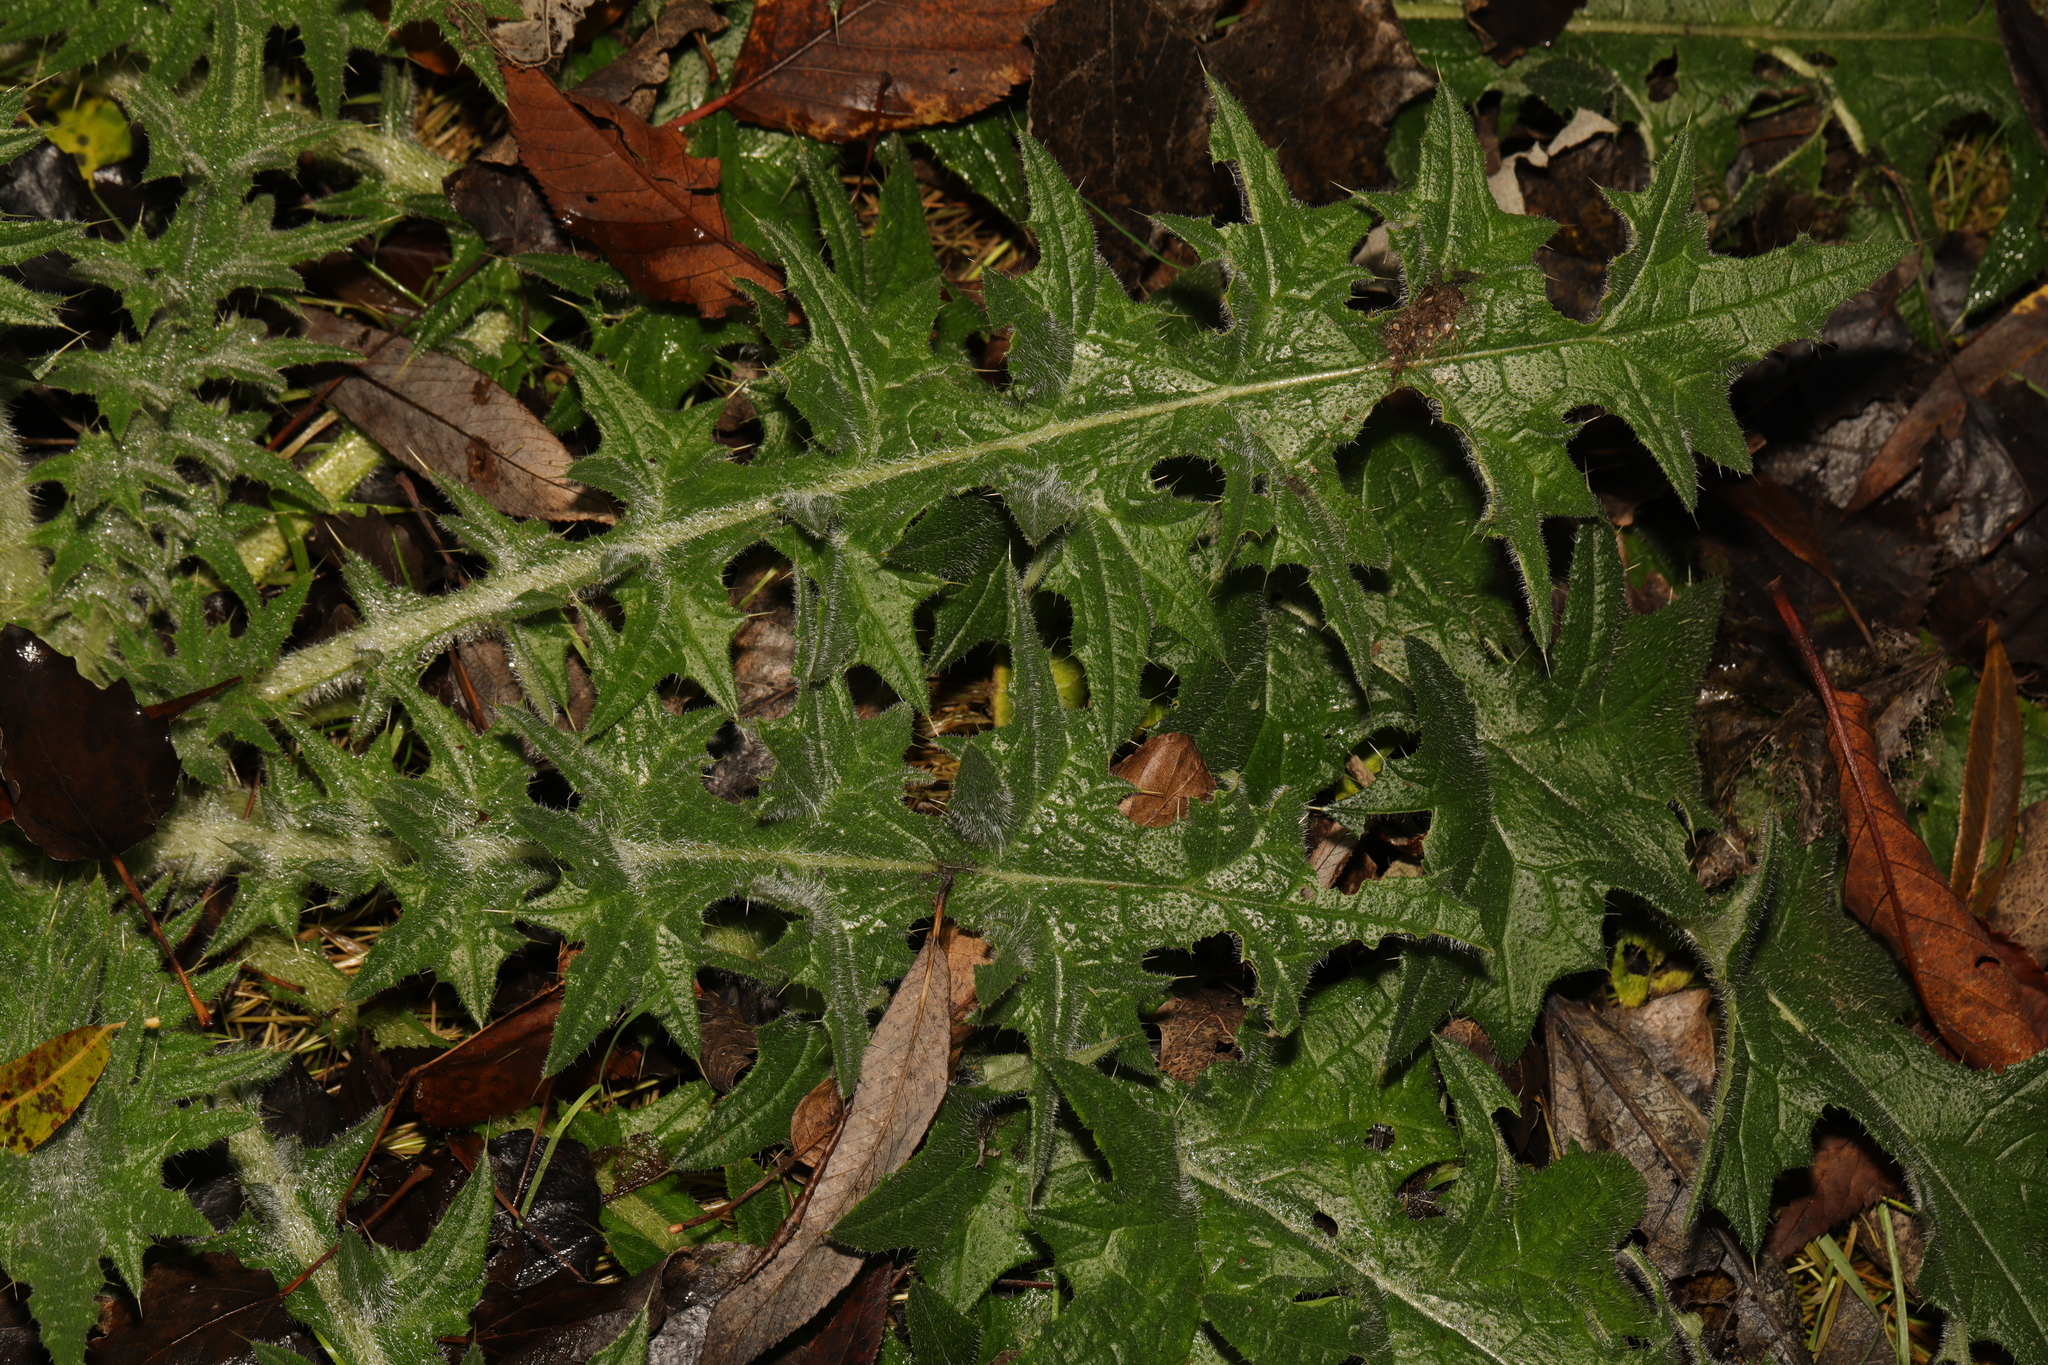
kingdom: Plantae
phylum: Tracheophyta
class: Magnoliopsida
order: Asterales
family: Asteraceae
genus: Cirsium
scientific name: Cirsium vulgare
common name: Bull thistle
